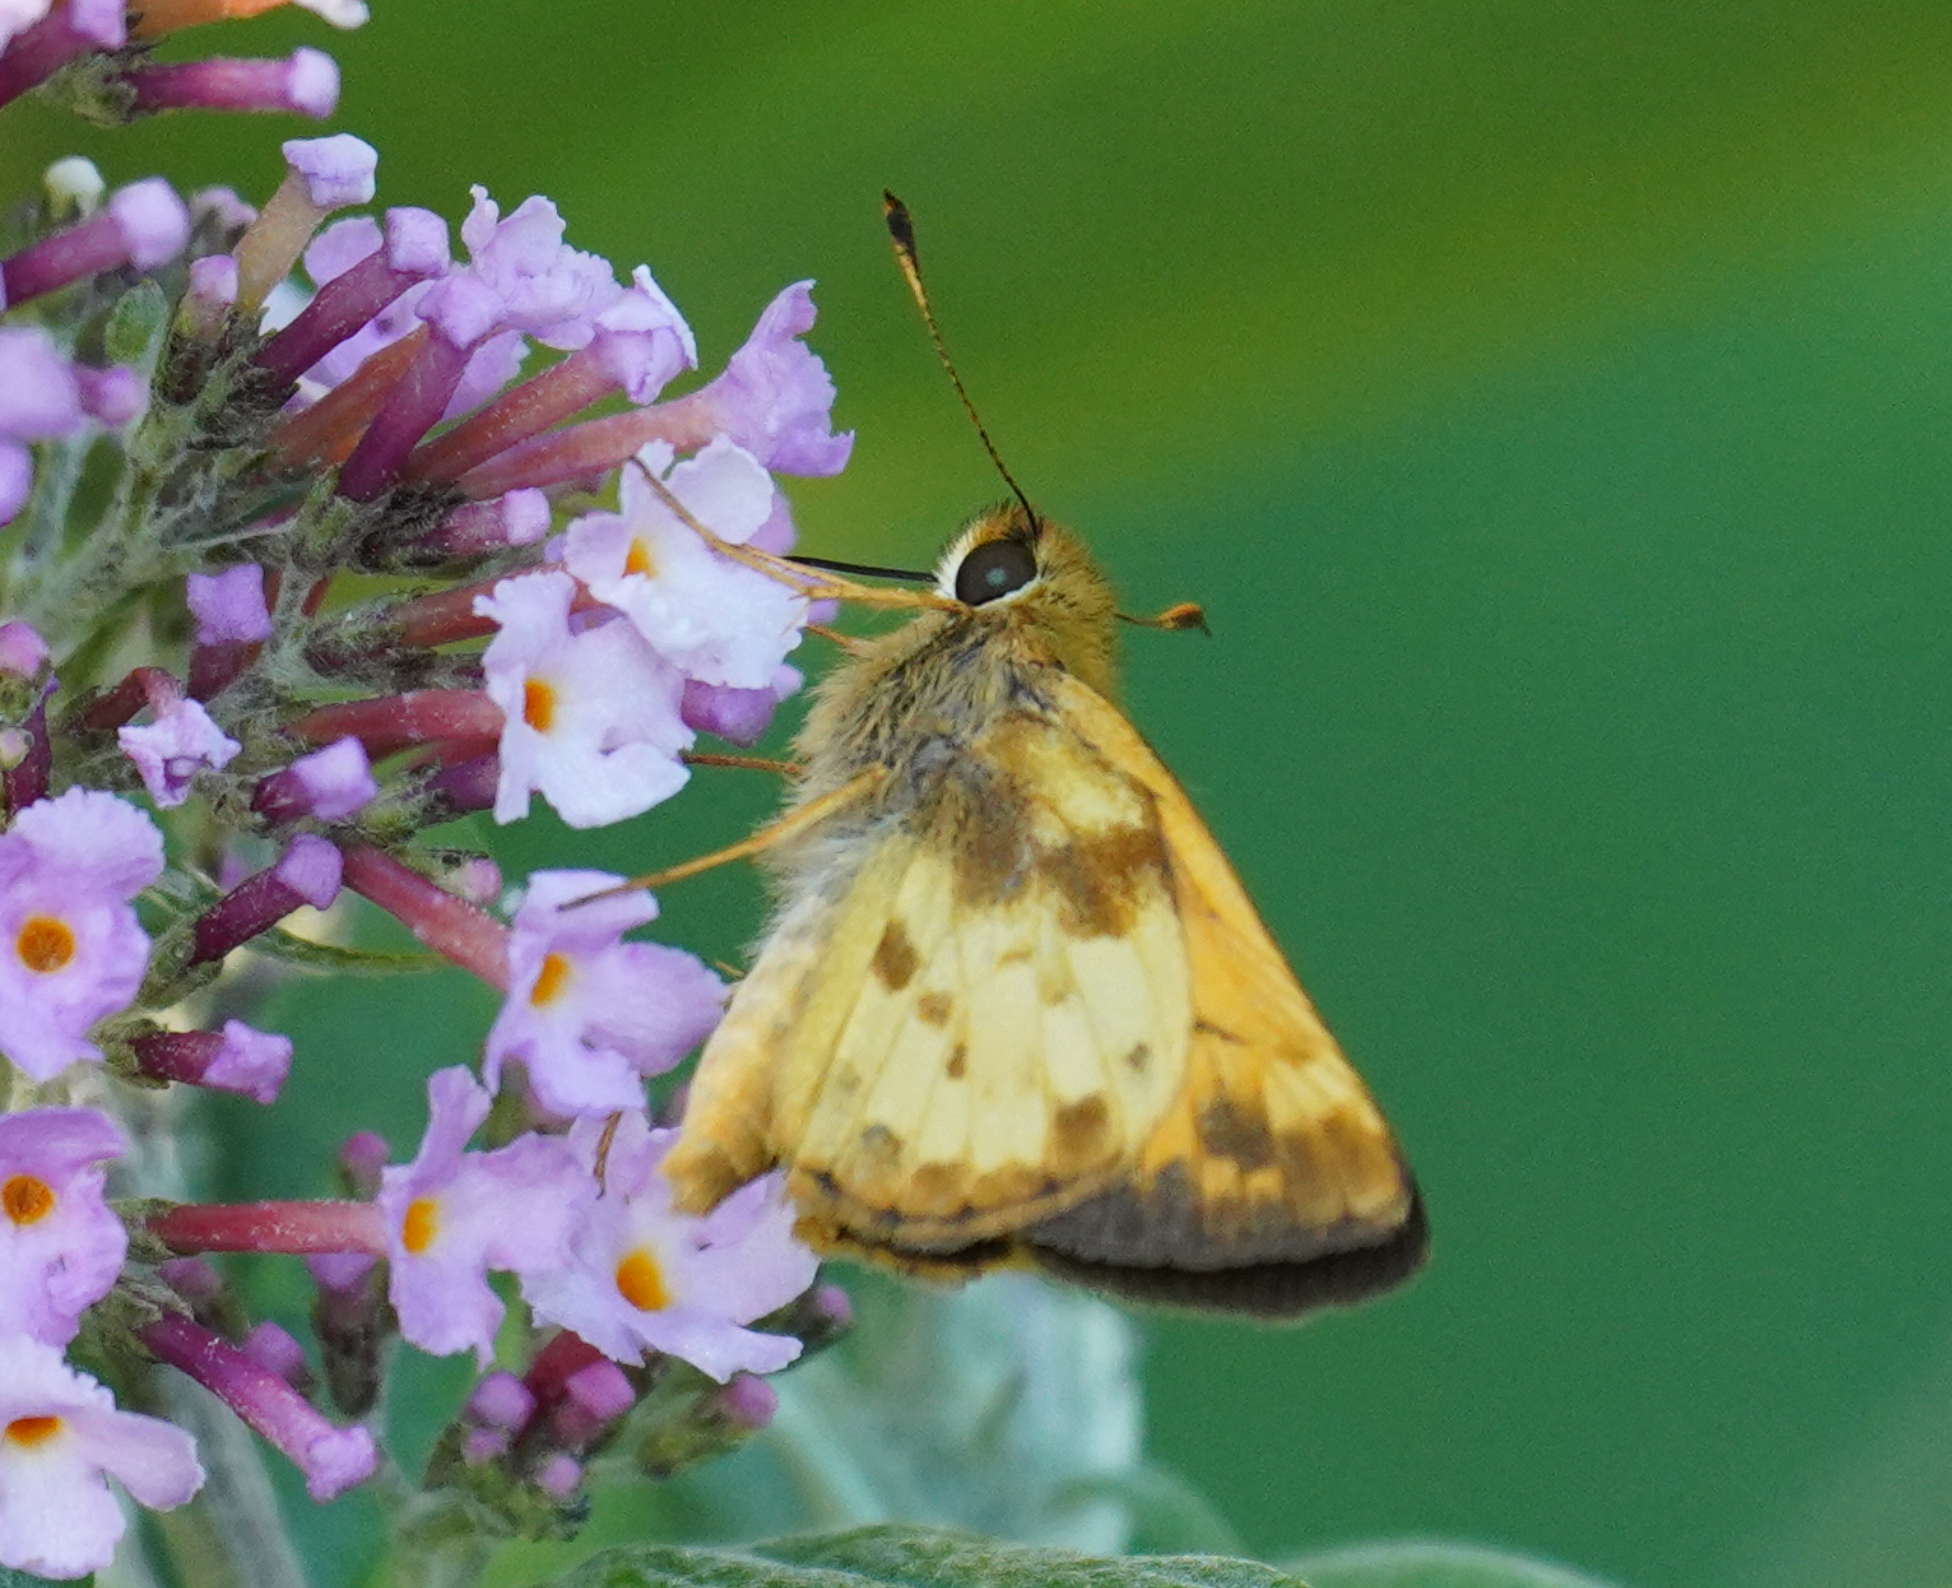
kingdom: Animalia
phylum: Arthropoda
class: Insecta
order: Lepidoptera
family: Hesperiidae
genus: Lon
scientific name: Lon zabulon
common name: Zabulon skipper
